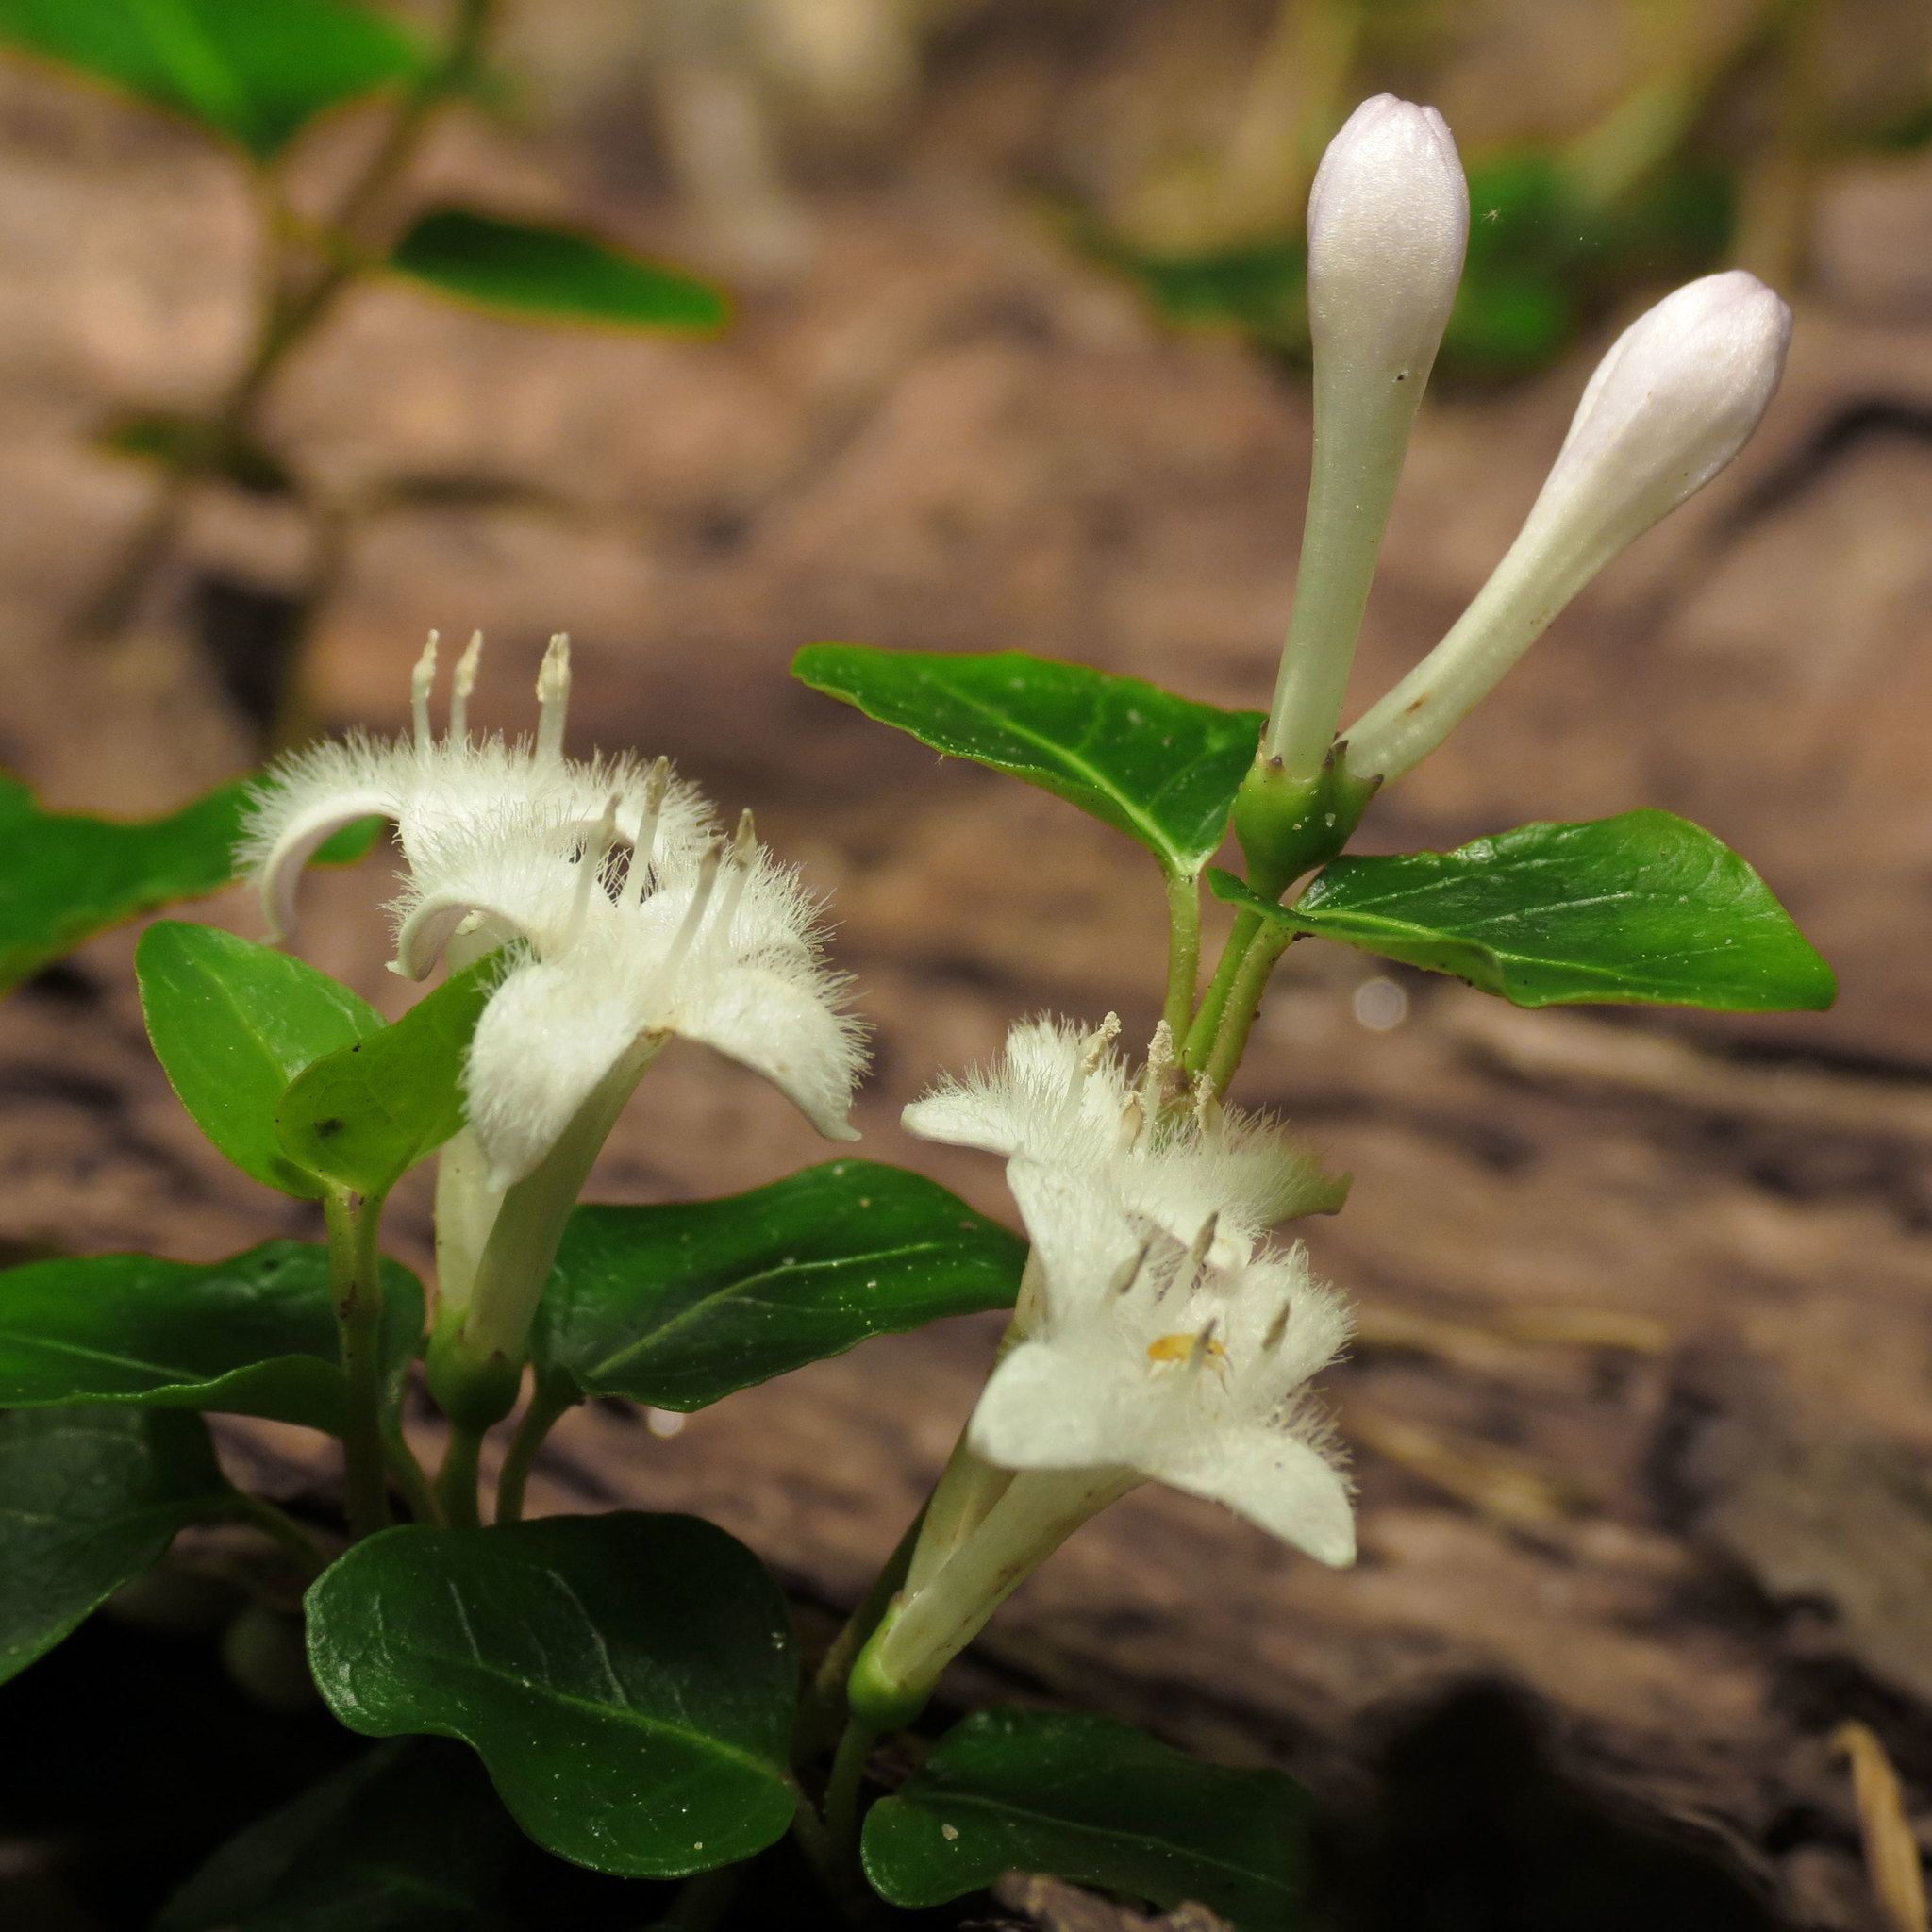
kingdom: Plantae
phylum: Tracheophyta
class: Magnoliopsida
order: Gentianales
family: Rubiaceae
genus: Mitchella
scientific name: Mitchella repens
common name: Partridge-berry
